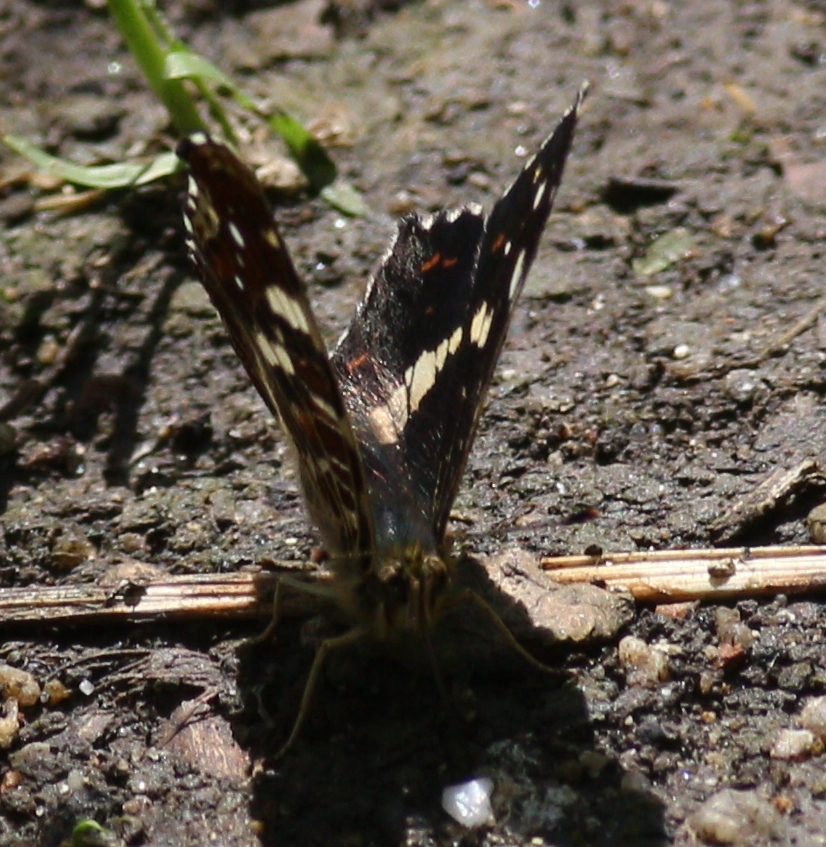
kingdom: Animalia
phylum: Arthropoda
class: Insecta
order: Lepidoptera
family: Nymphalidae
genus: Araschnia
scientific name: Araschnia levana
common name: Map butterfly
